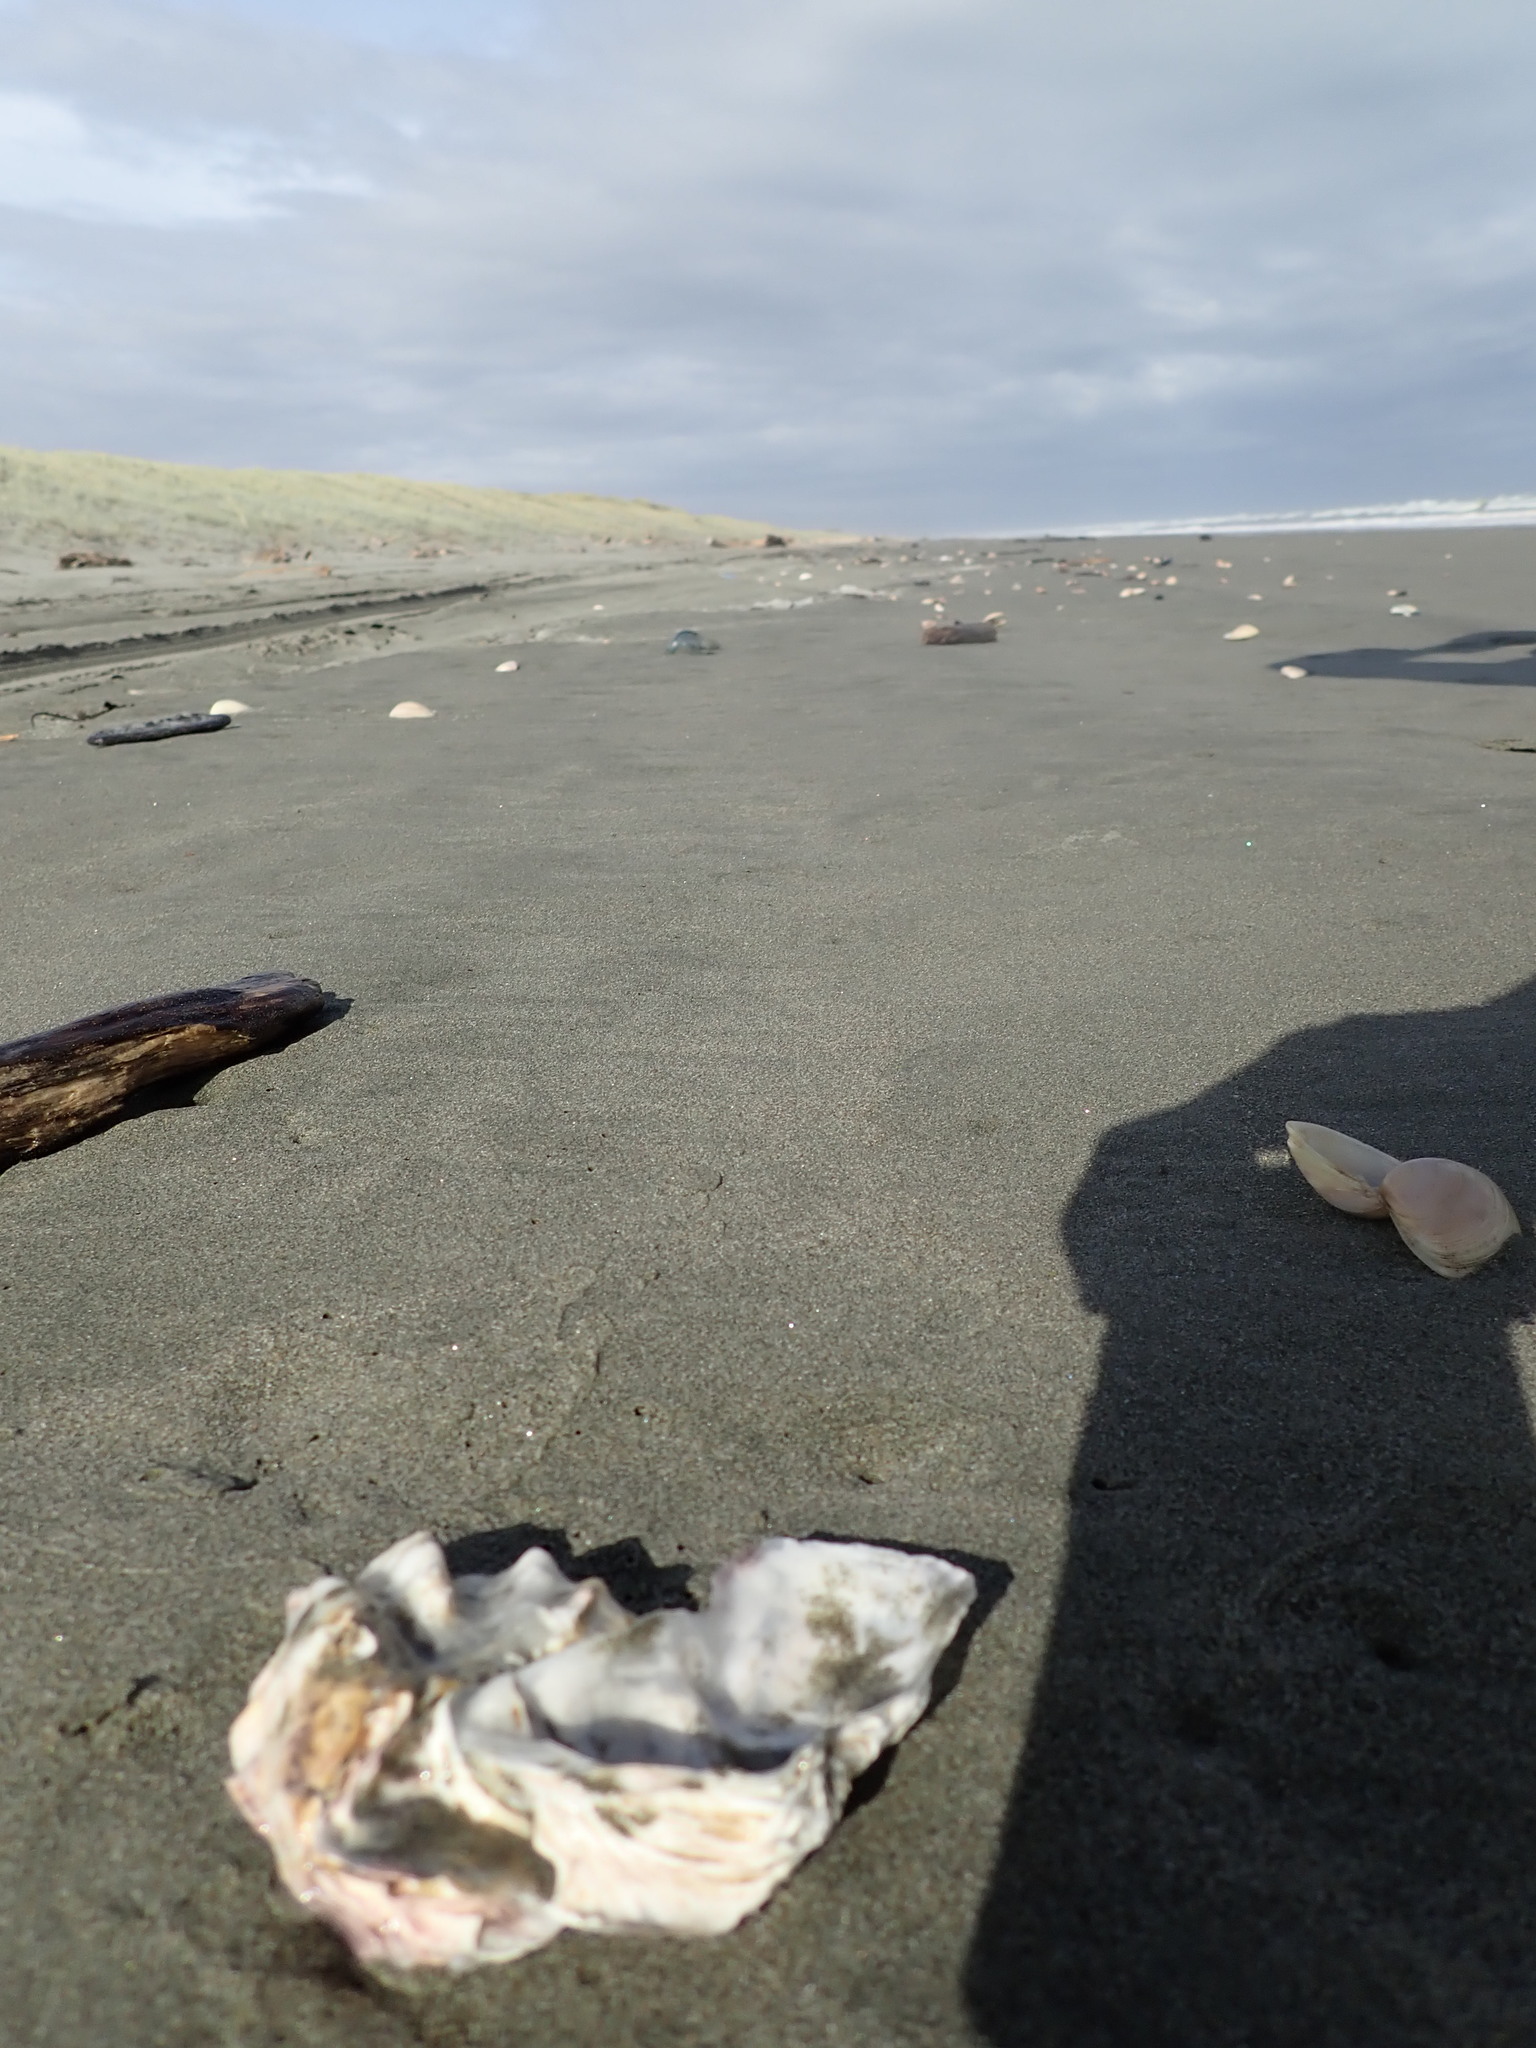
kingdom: Animalia
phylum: Mollusca
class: Bivalvia
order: Ostreida
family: Ostreidae
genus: Magallana
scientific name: Magallana gigas
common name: Pacific oyster
